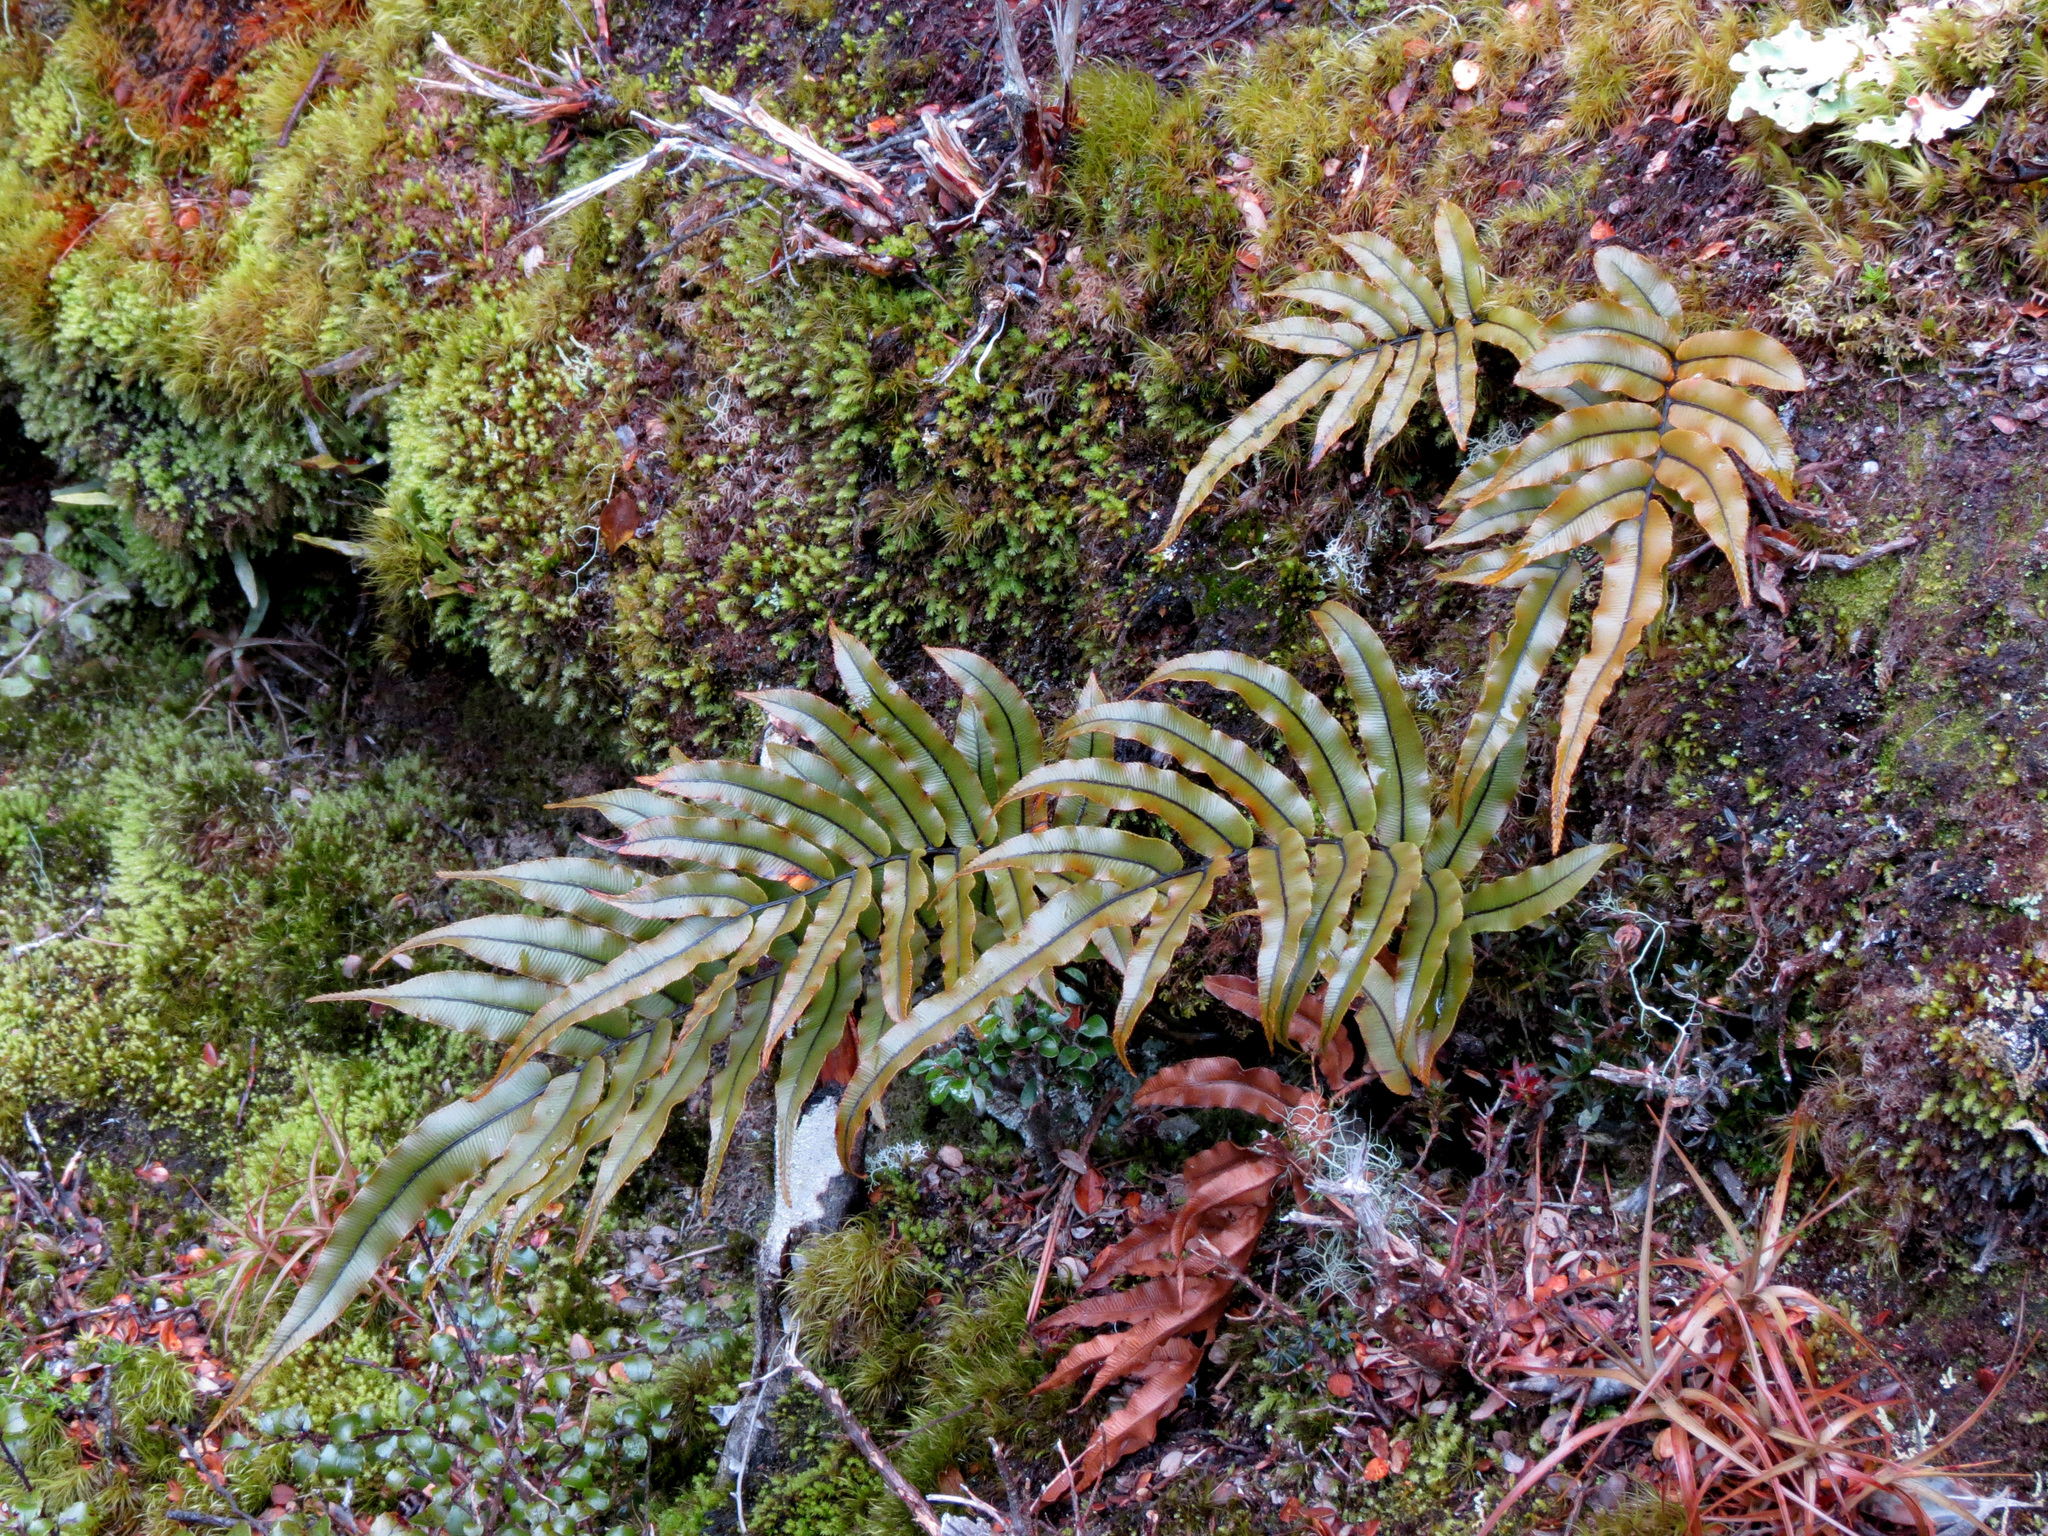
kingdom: Plantae
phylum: Tracheophyta
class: Polypodiopsida
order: Polypodiales
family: Blechnaceae
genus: Parablechnum
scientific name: Parablechnum montanum
